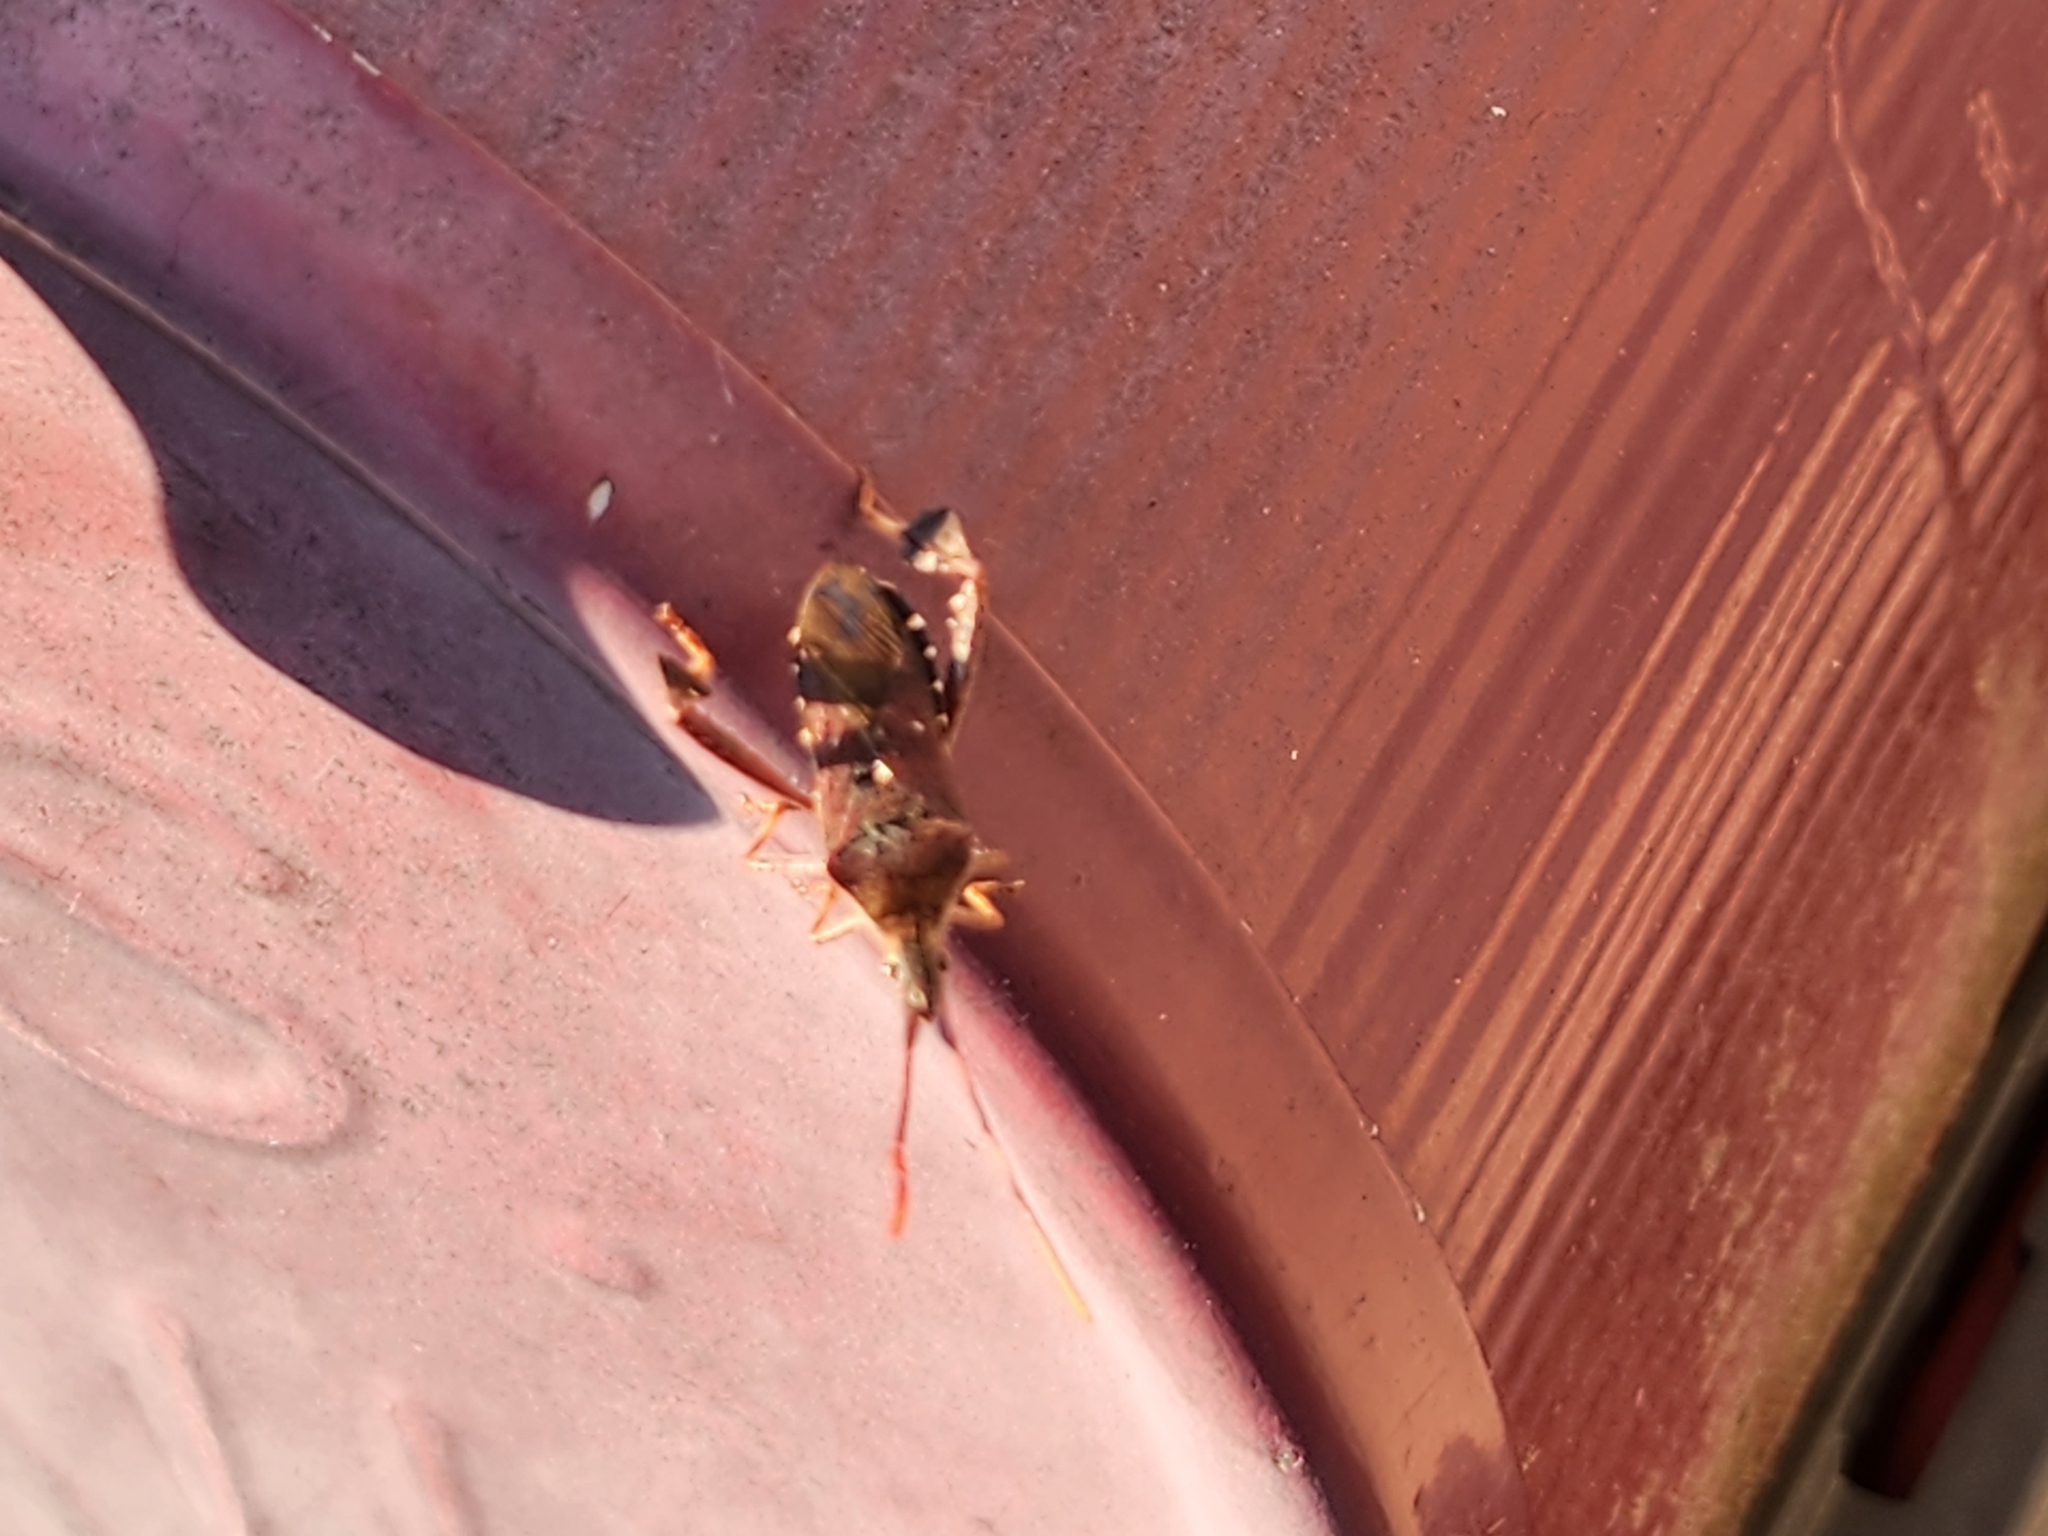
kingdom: Animalia
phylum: Arthropoda
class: Insecta
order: Hemiptera
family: Coreidae
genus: Leptoglossus
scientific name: Leptoglossus oppositus
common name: Northern leaf-footed bug
